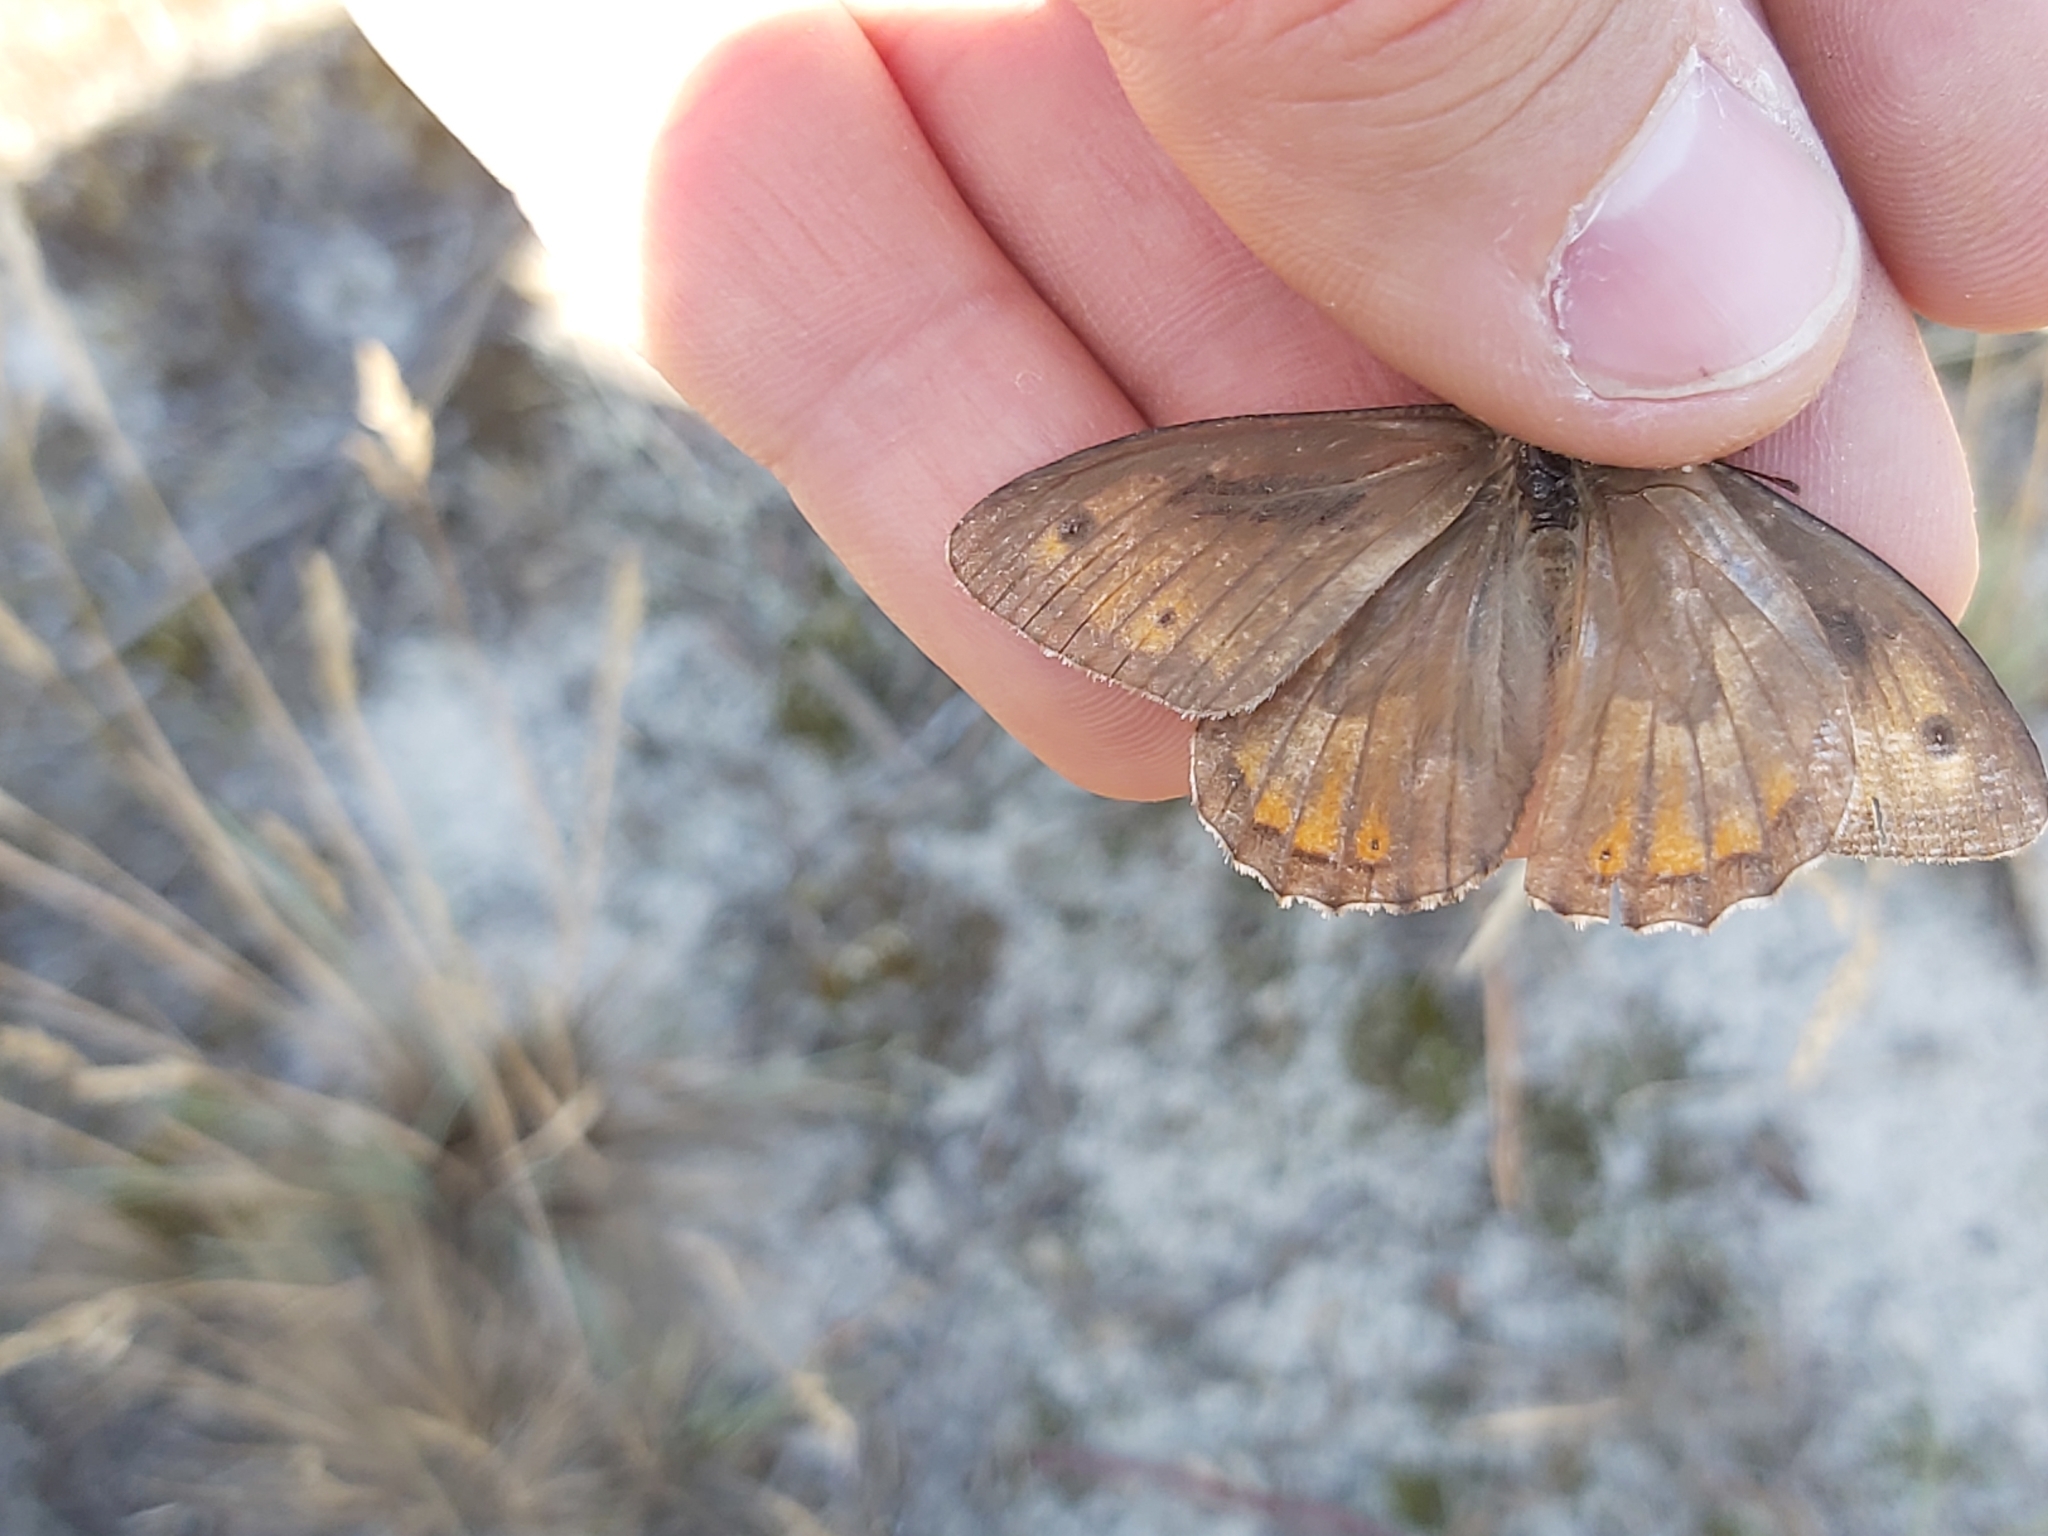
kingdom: Animalia
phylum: Arthropoda
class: Insecta
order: Lepidoptera
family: Nymphalidae
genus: Hipparchia
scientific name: Hipparchia semele
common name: Grayling
